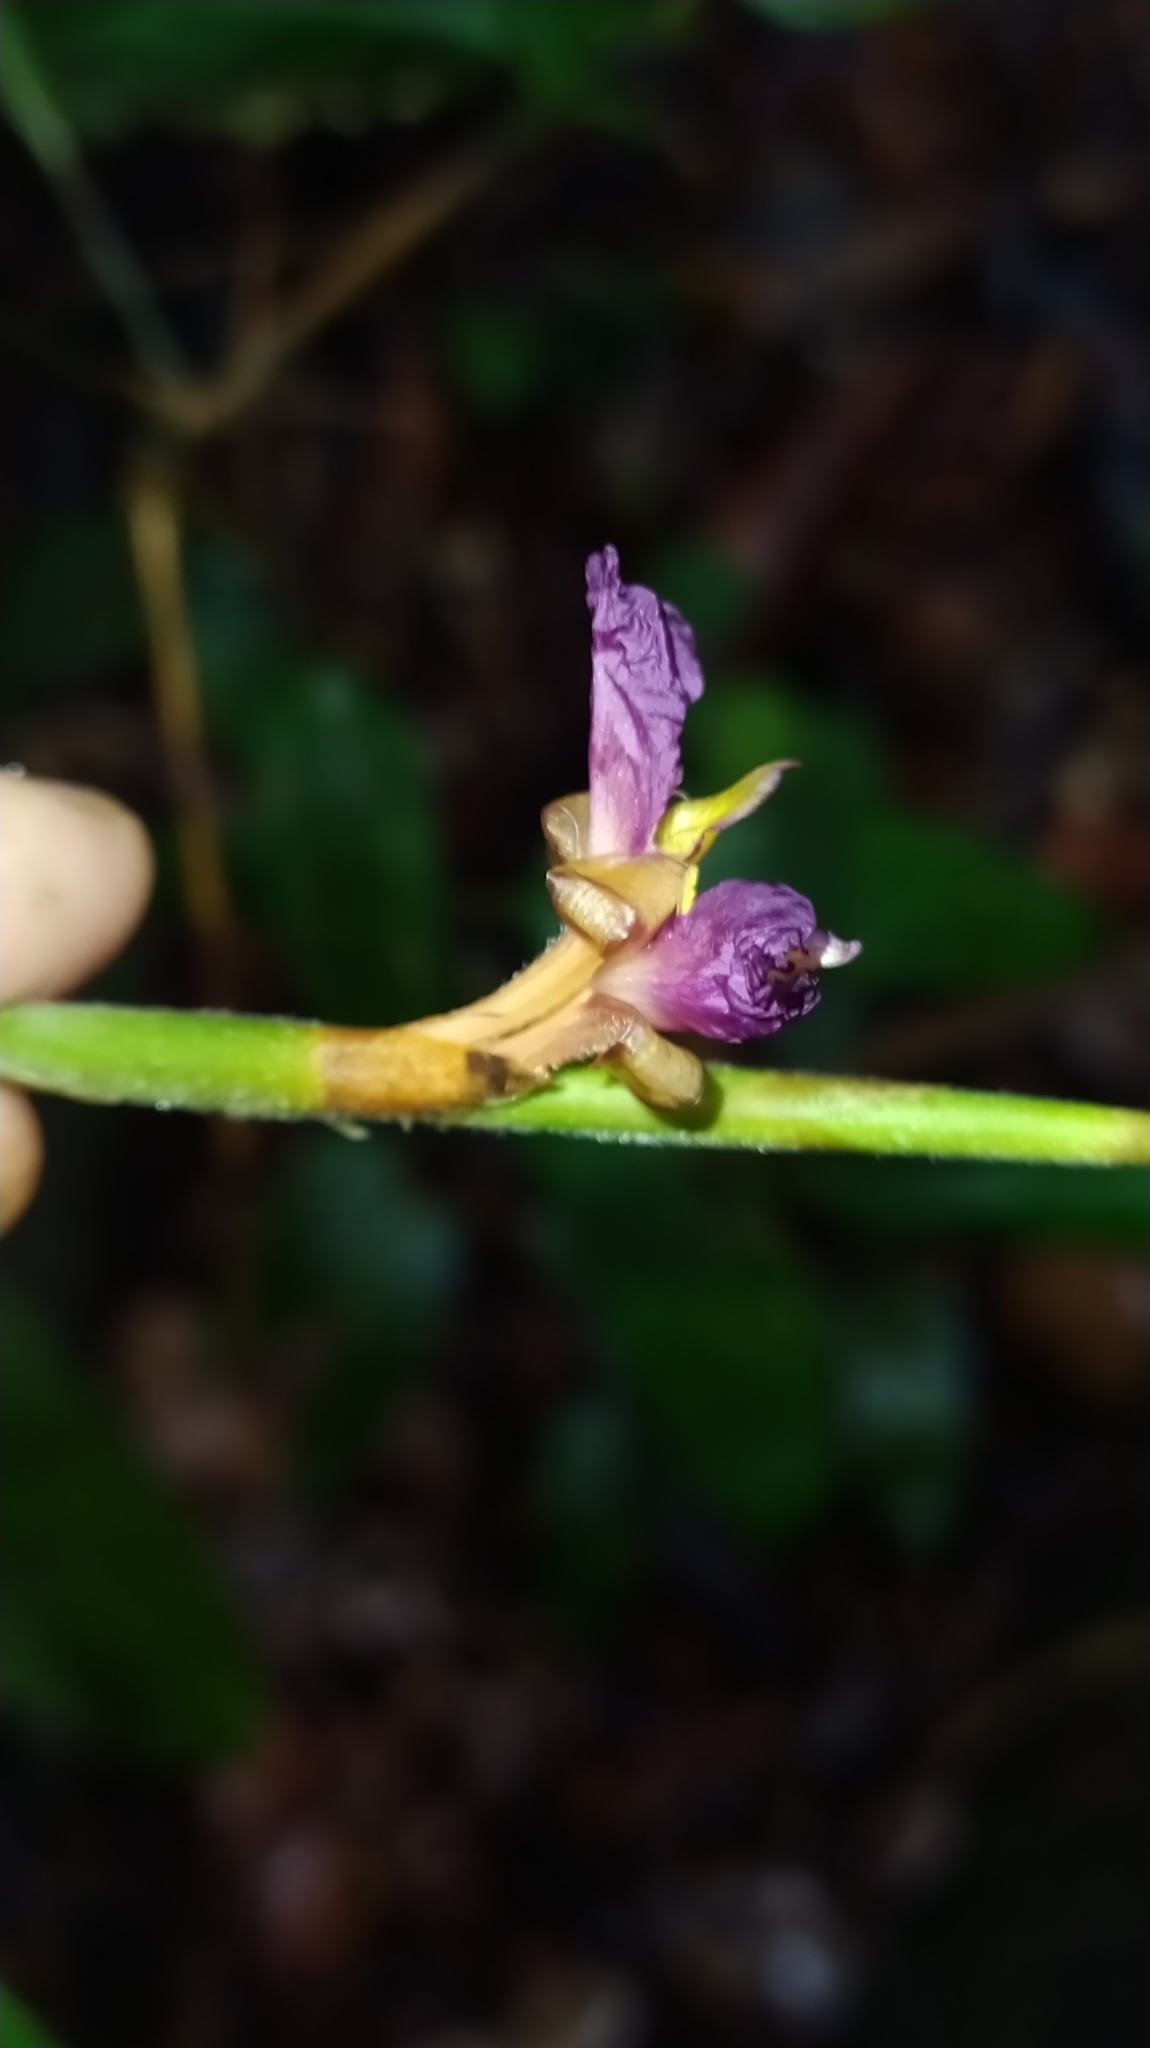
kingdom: Plantae
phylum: Tracheophyta
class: Liliopsida
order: Zingiberales
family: Marantaceae
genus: Ischnosiphon
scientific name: Ischnosiphon puberulus
